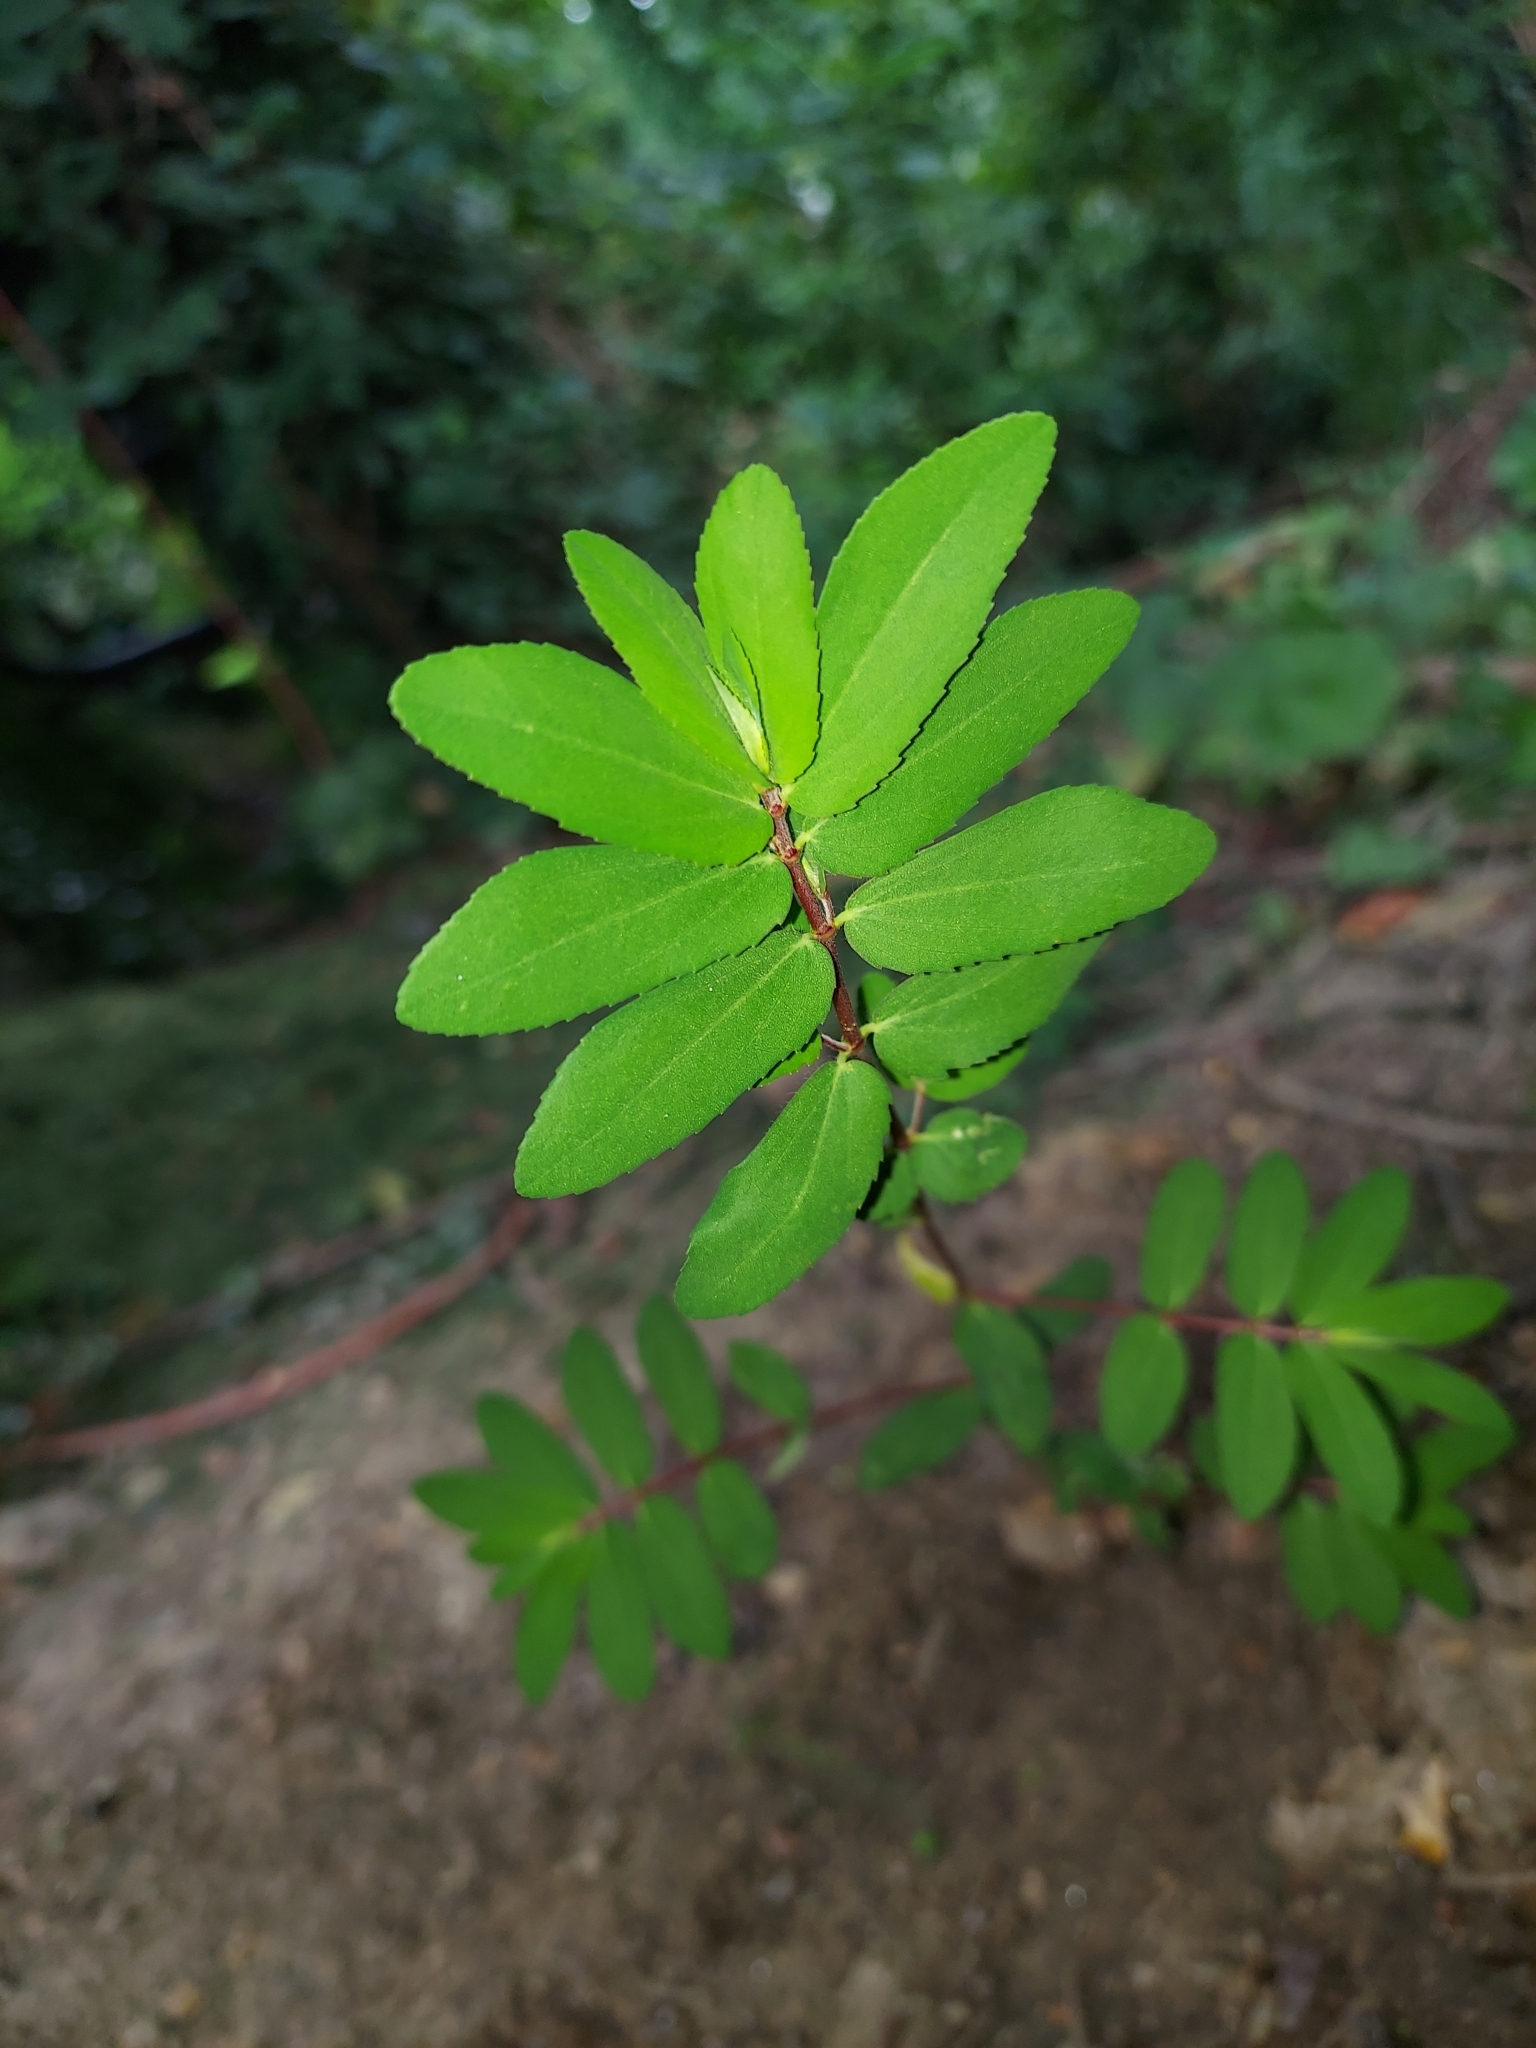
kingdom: Plantae
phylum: Tracheophyta
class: Magnoliopsida
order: Malpighiales
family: Euphorbiaceae
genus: Euphorbia
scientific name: Euphorbia nutans
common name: Eyebane
